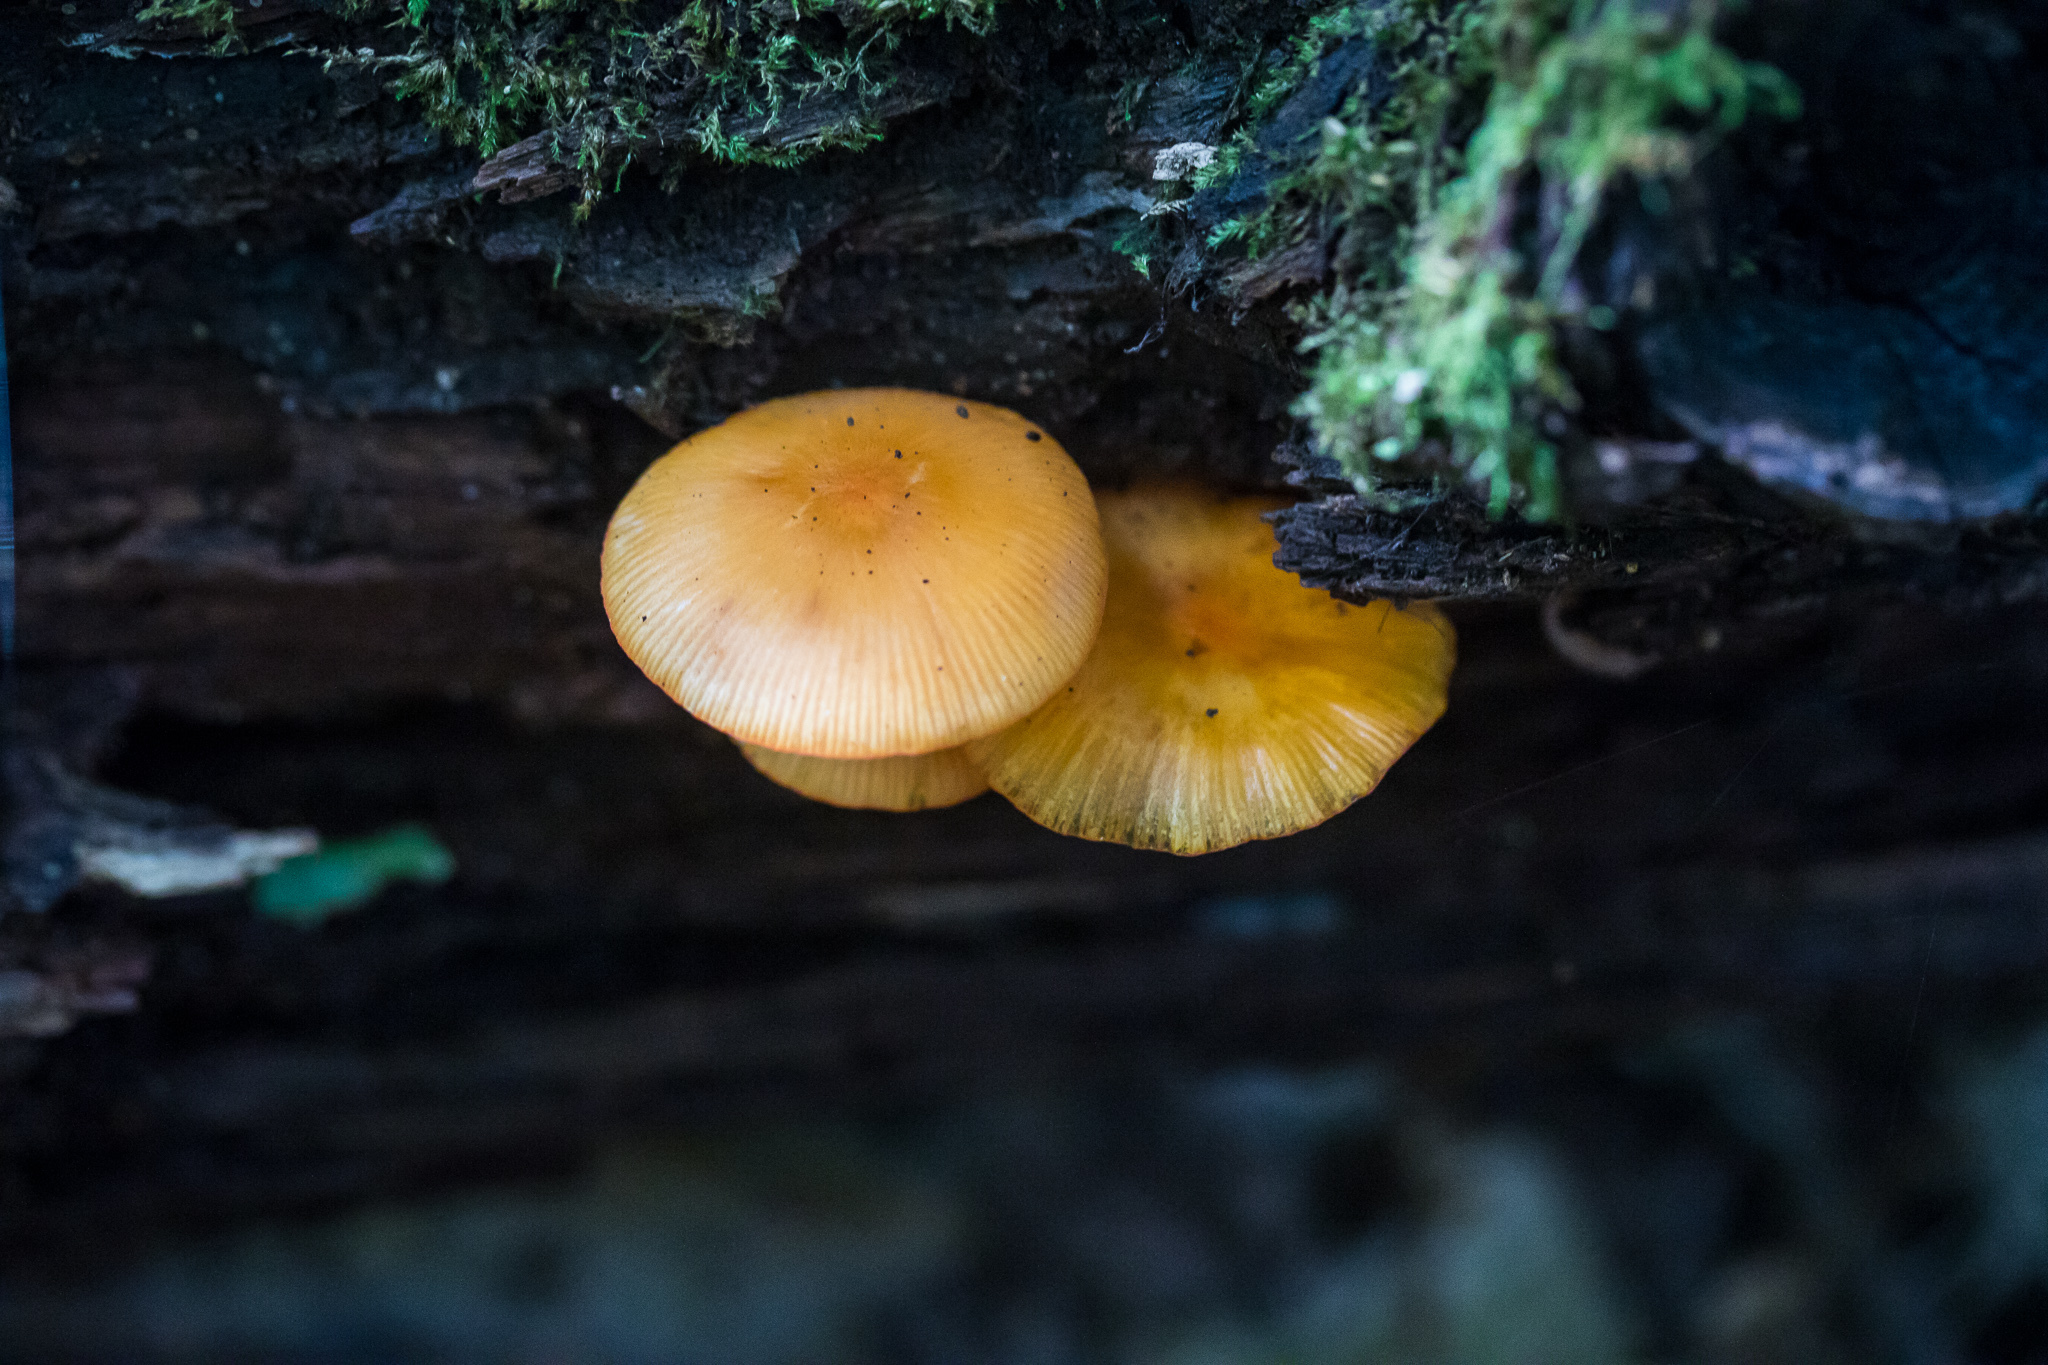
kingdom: Fungi
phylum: Basidiomycota
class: Agaricomycetes
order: Agaricales
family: Mycenaceae
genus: Mycena
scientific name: Mycena leaiana
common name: Orange mycena
